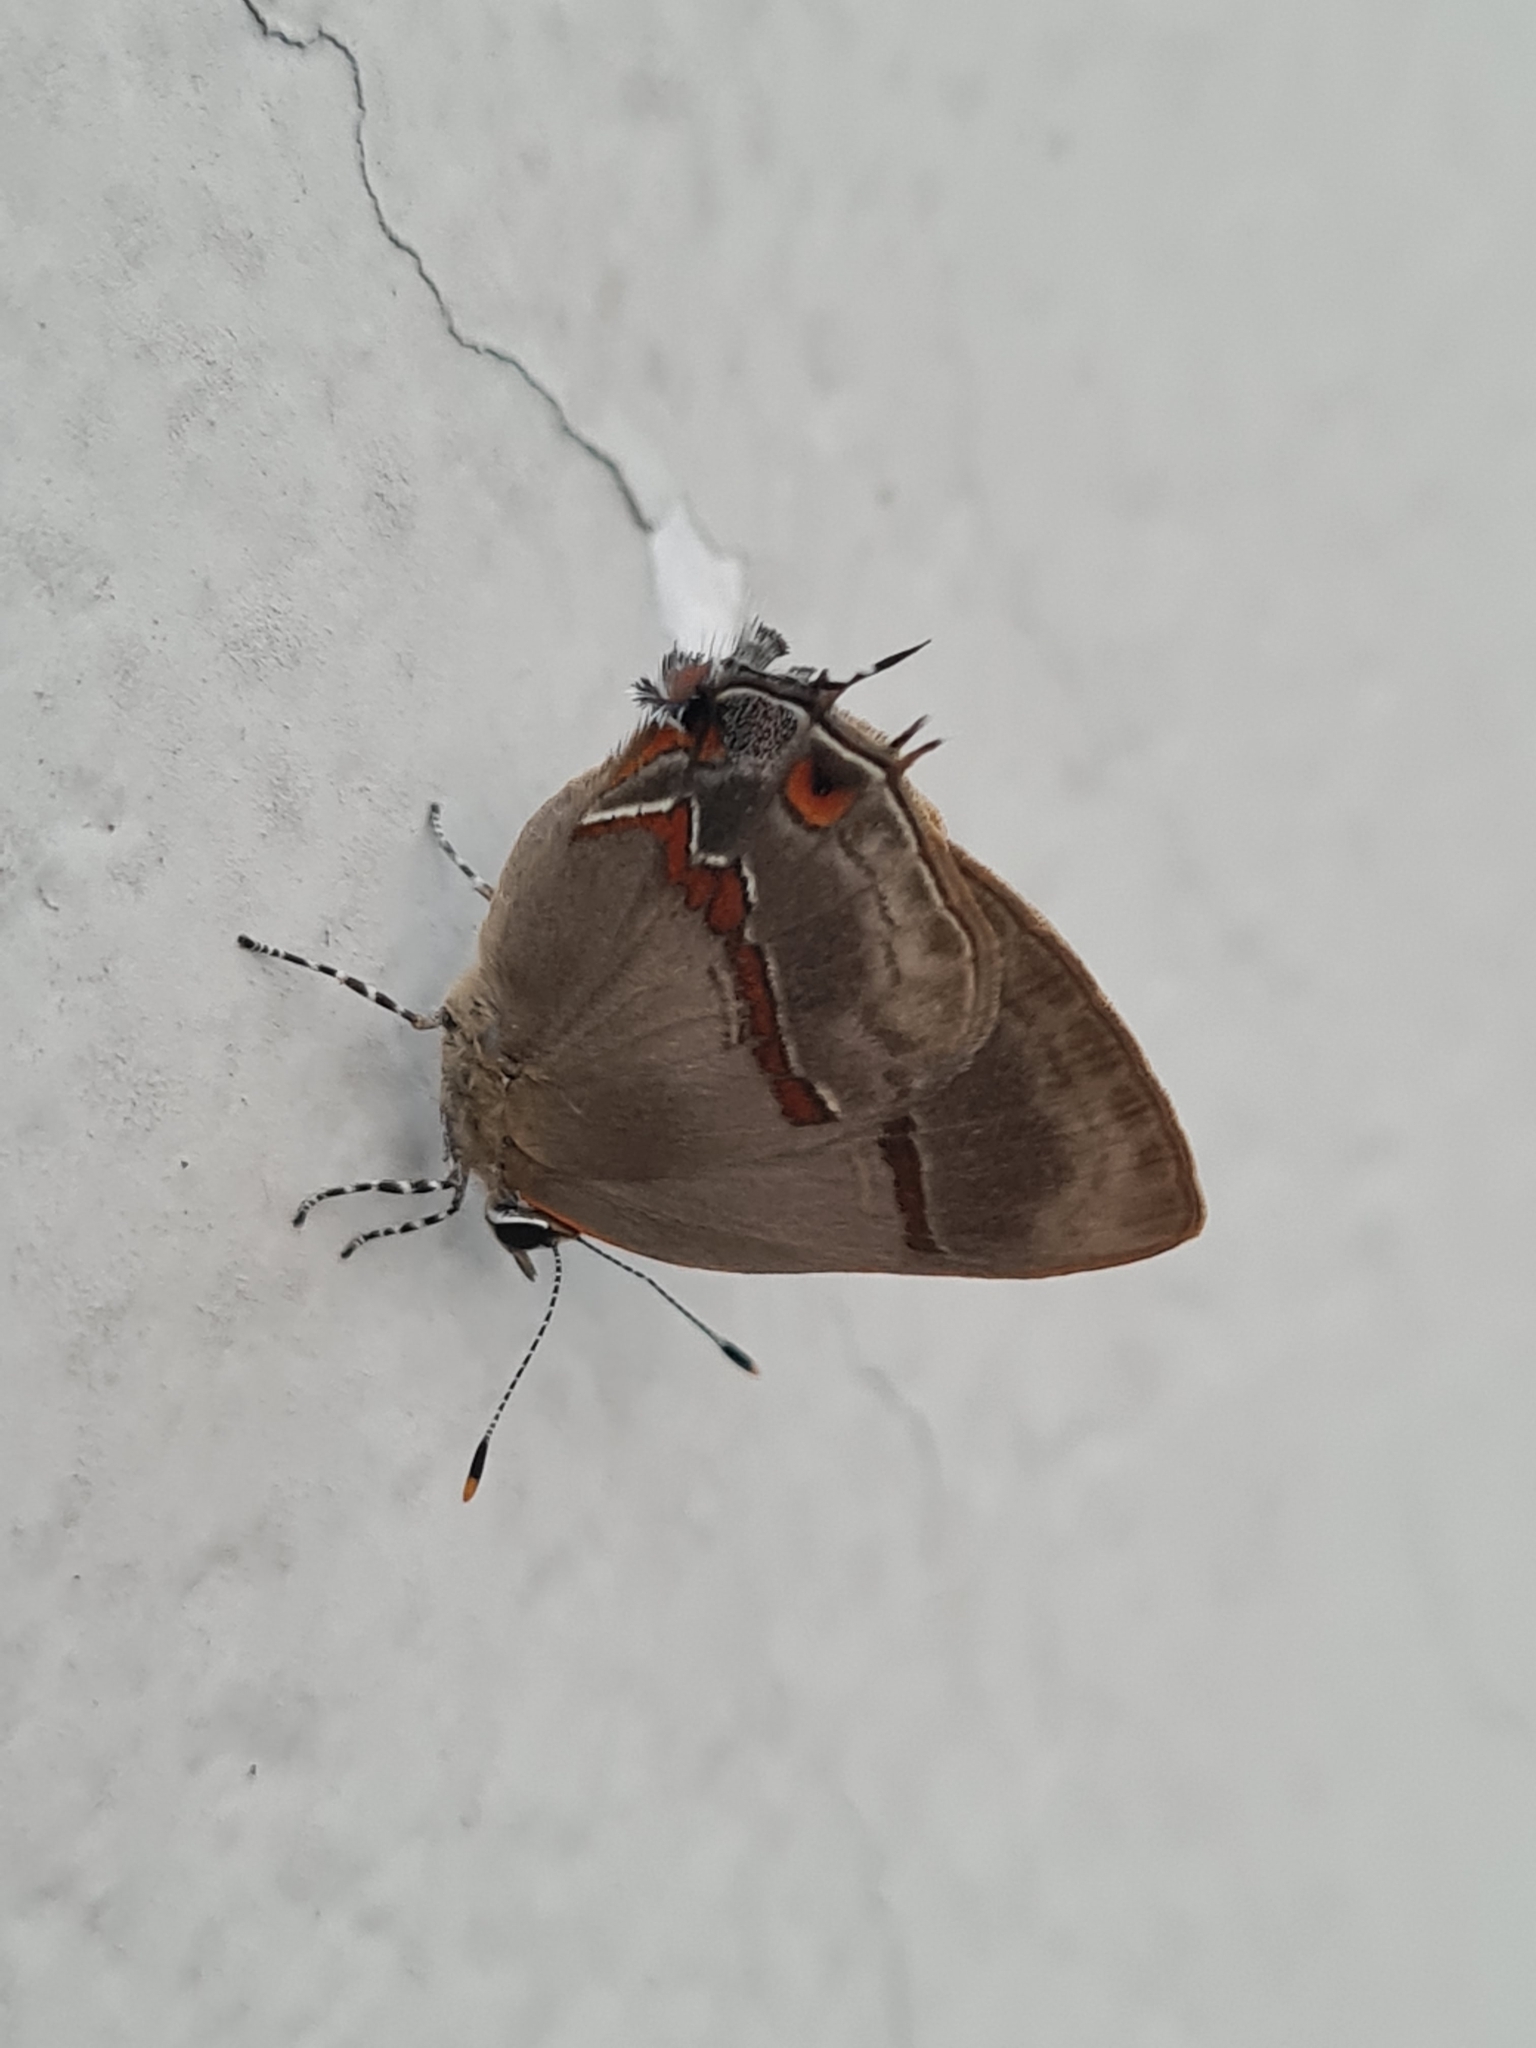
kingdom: Animalia
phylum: Arthropoda
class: Insecta
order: Lepidoptera
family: Lycaenidae
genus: Lamprospilus
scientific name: Lamprospilus collucia
